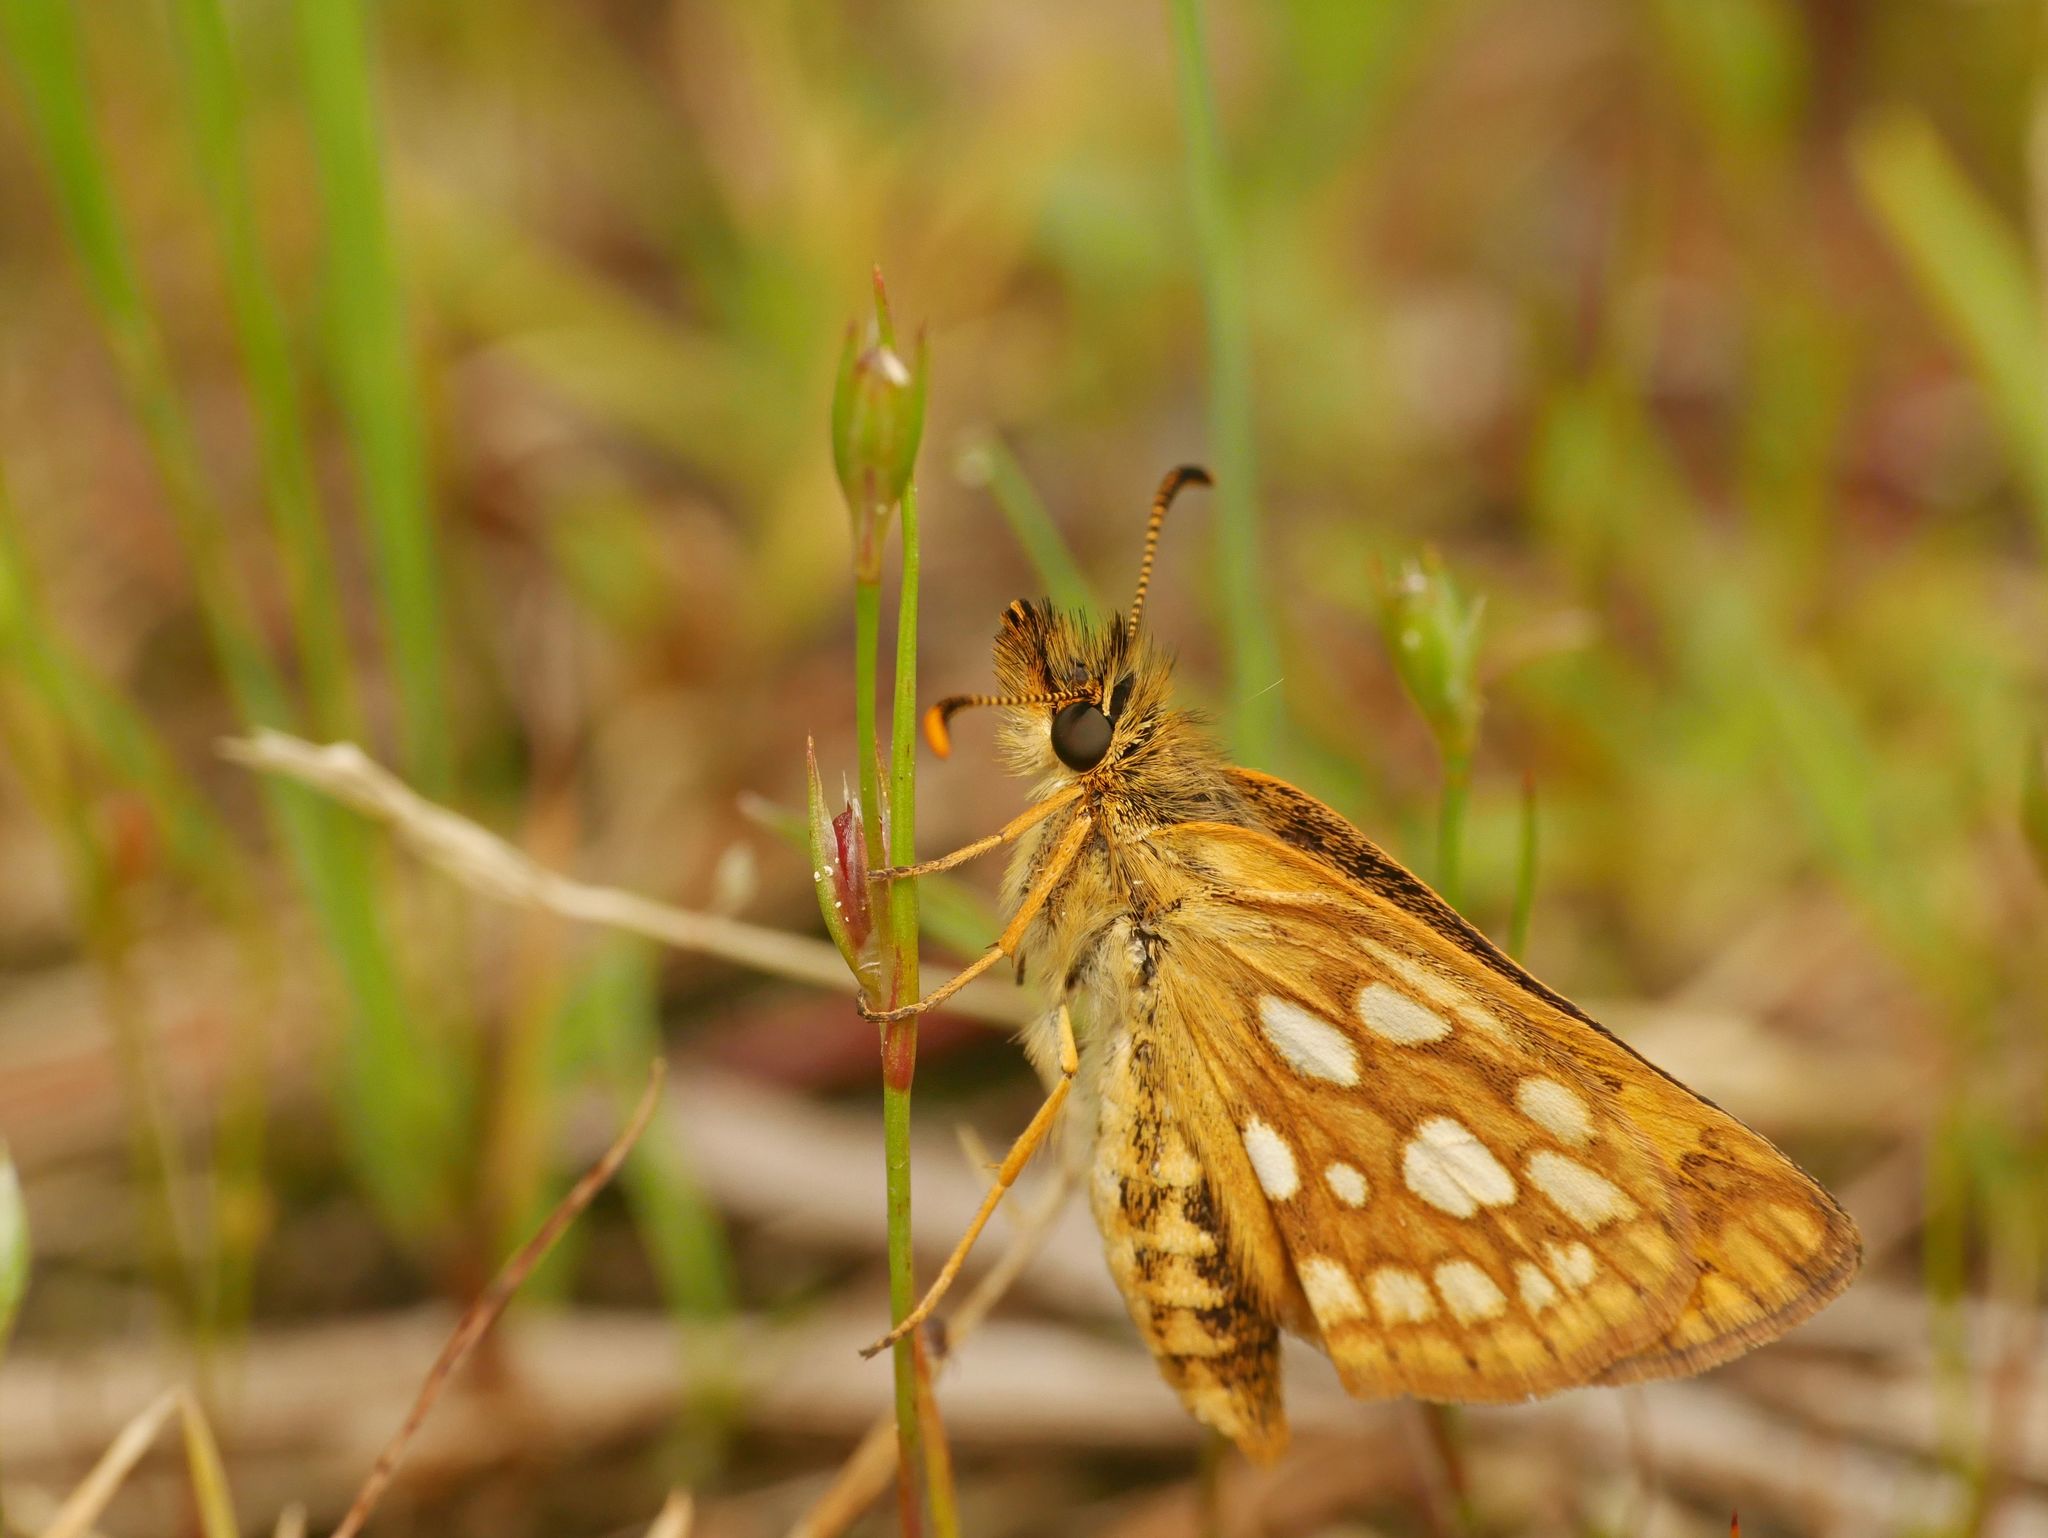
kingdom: Animalia
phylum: Arthropoda
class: Insecta
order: Lepidoptera
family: Hesperiidae
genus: Carterocephalus
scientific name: Carterocephalus mandan
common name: Arctic skipperling
